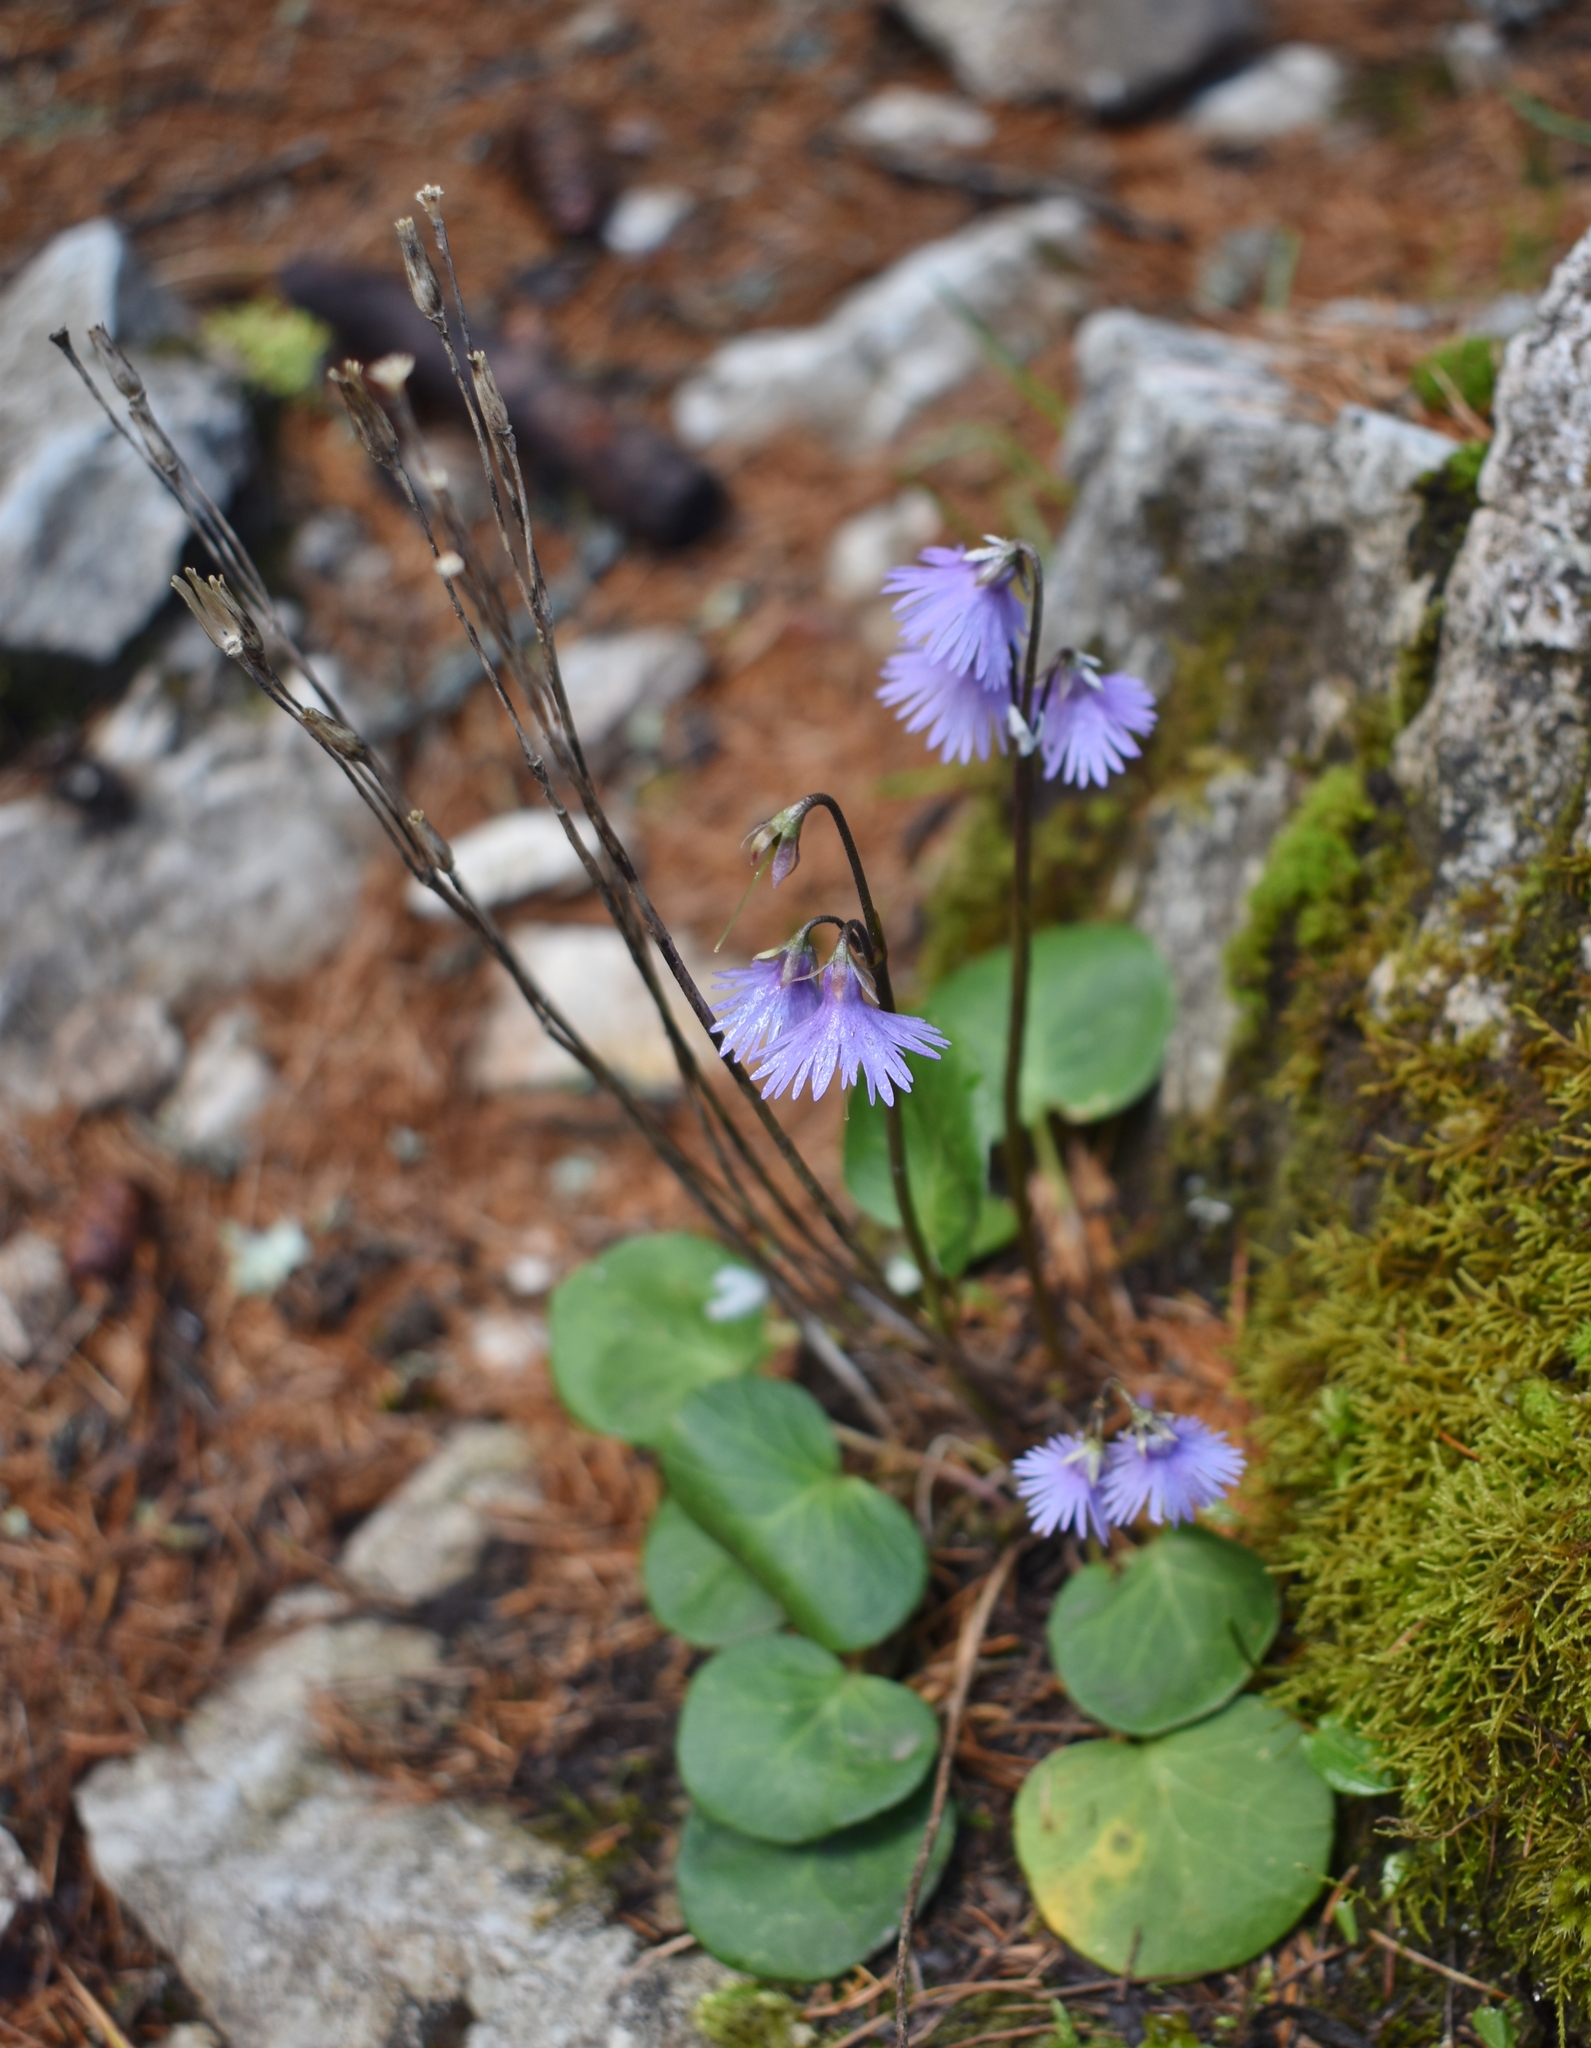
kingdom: Plantae
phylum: Tracheophyta
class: Magnoliopsida
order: Ericales
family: Primulaceae
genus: Soldanella
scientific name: Soldanella alpina
